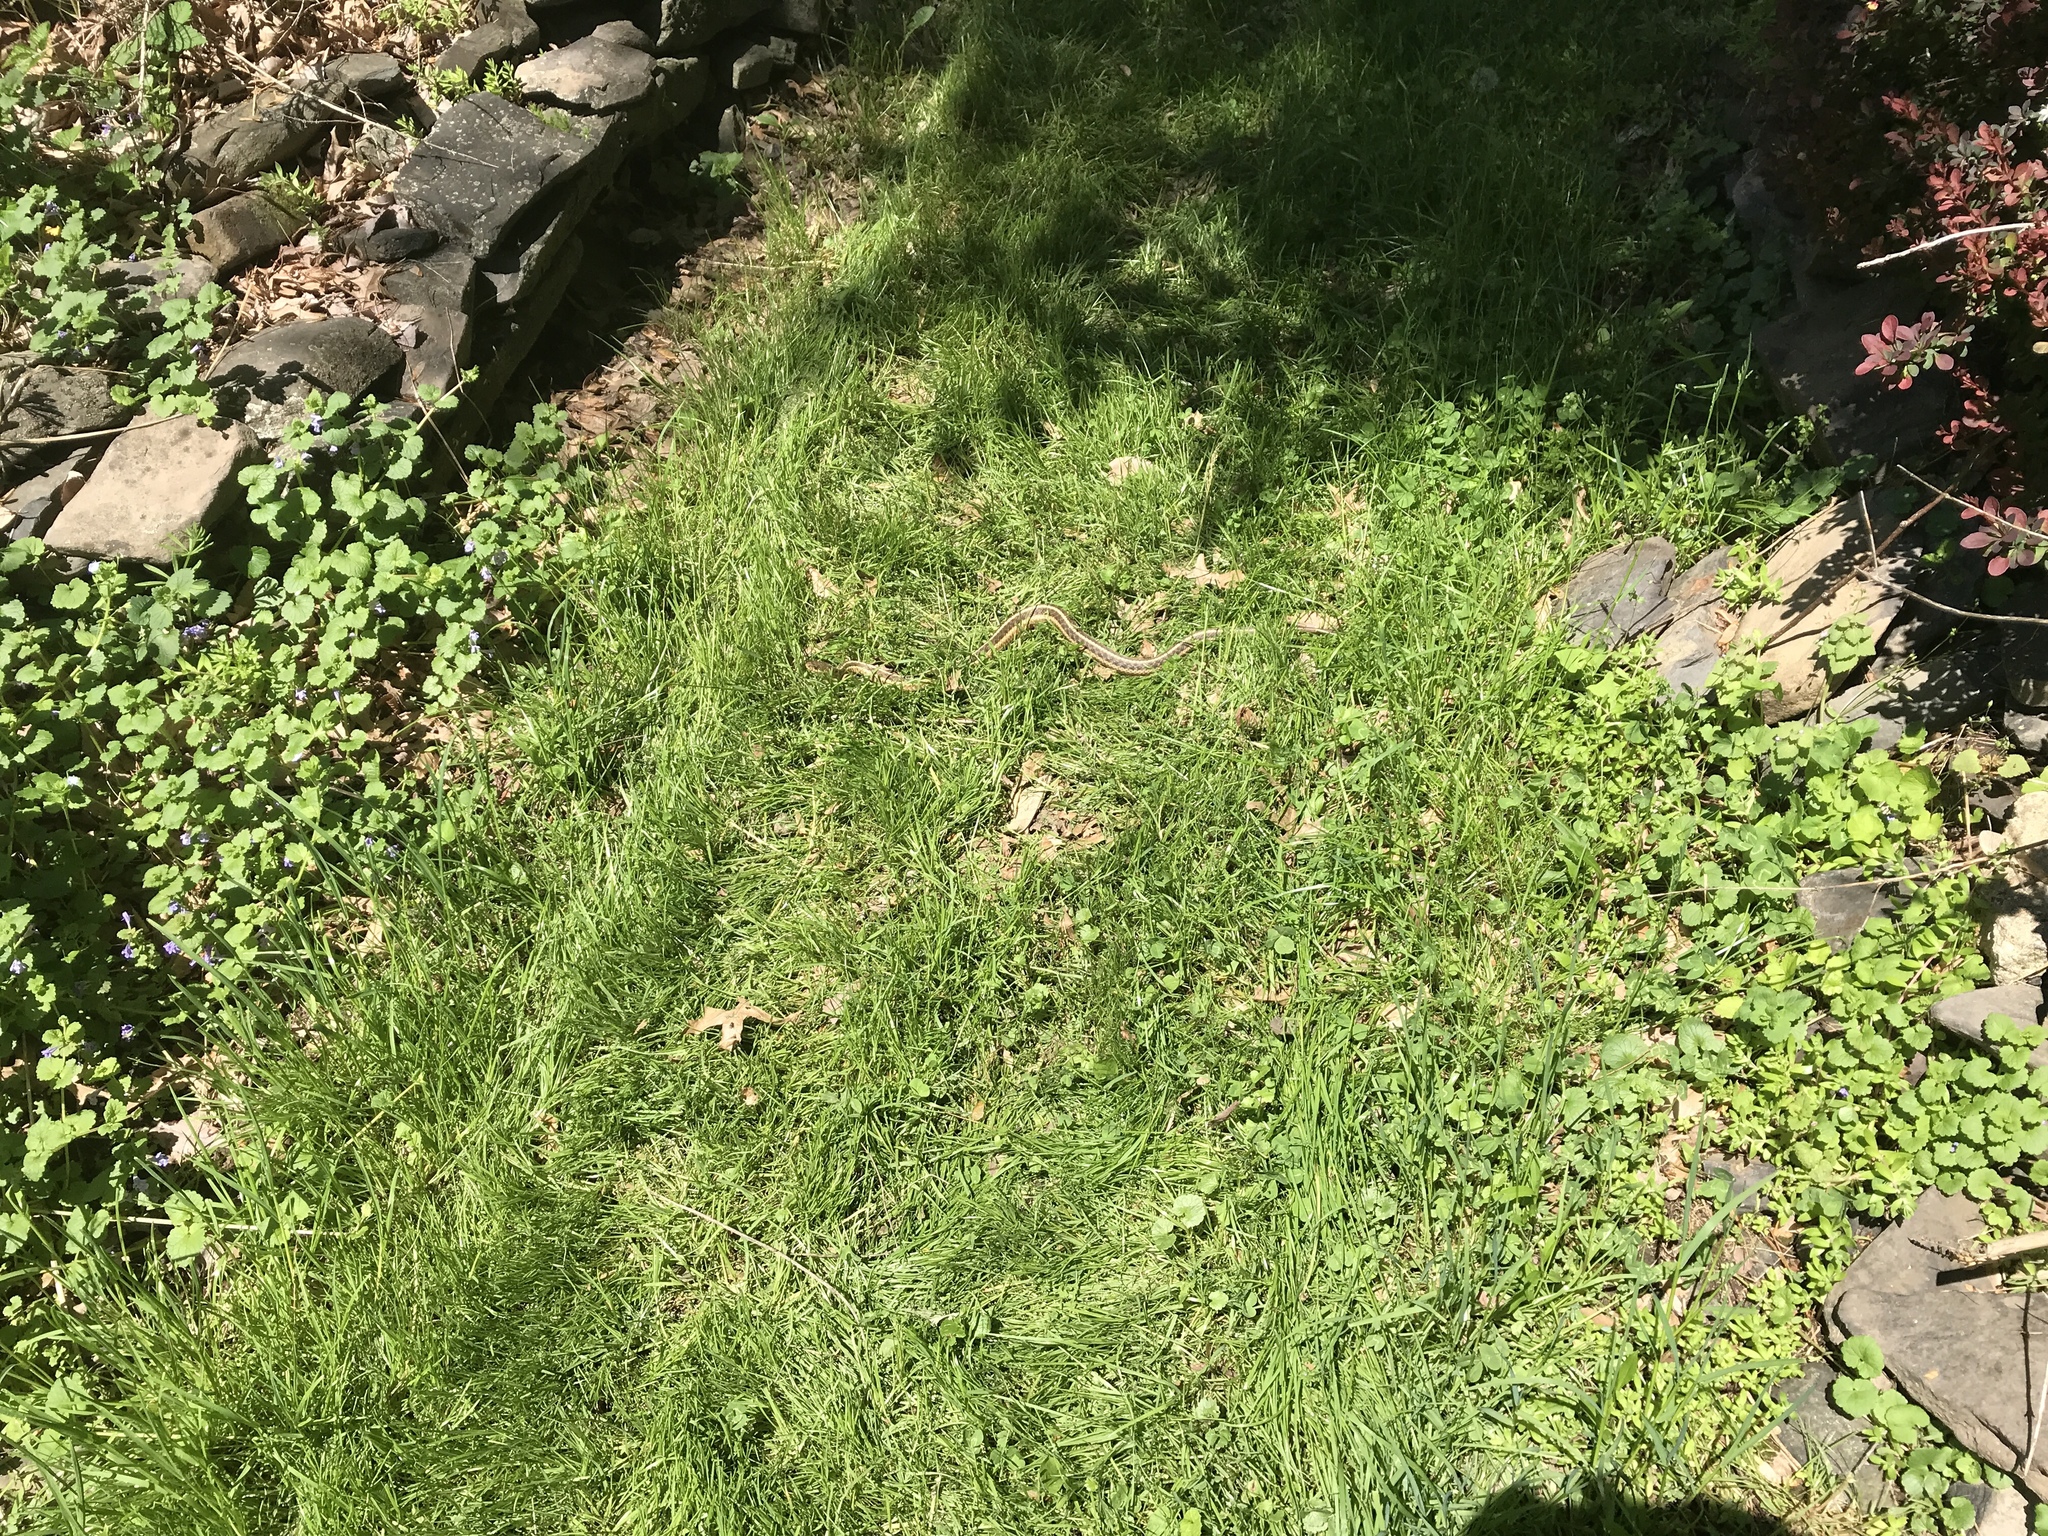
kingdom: Animalia
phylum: Chordata
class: Squamata
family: Colubridae
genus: Thamnophis
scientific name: Thamnophis sirtalis
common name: Common garter snake
